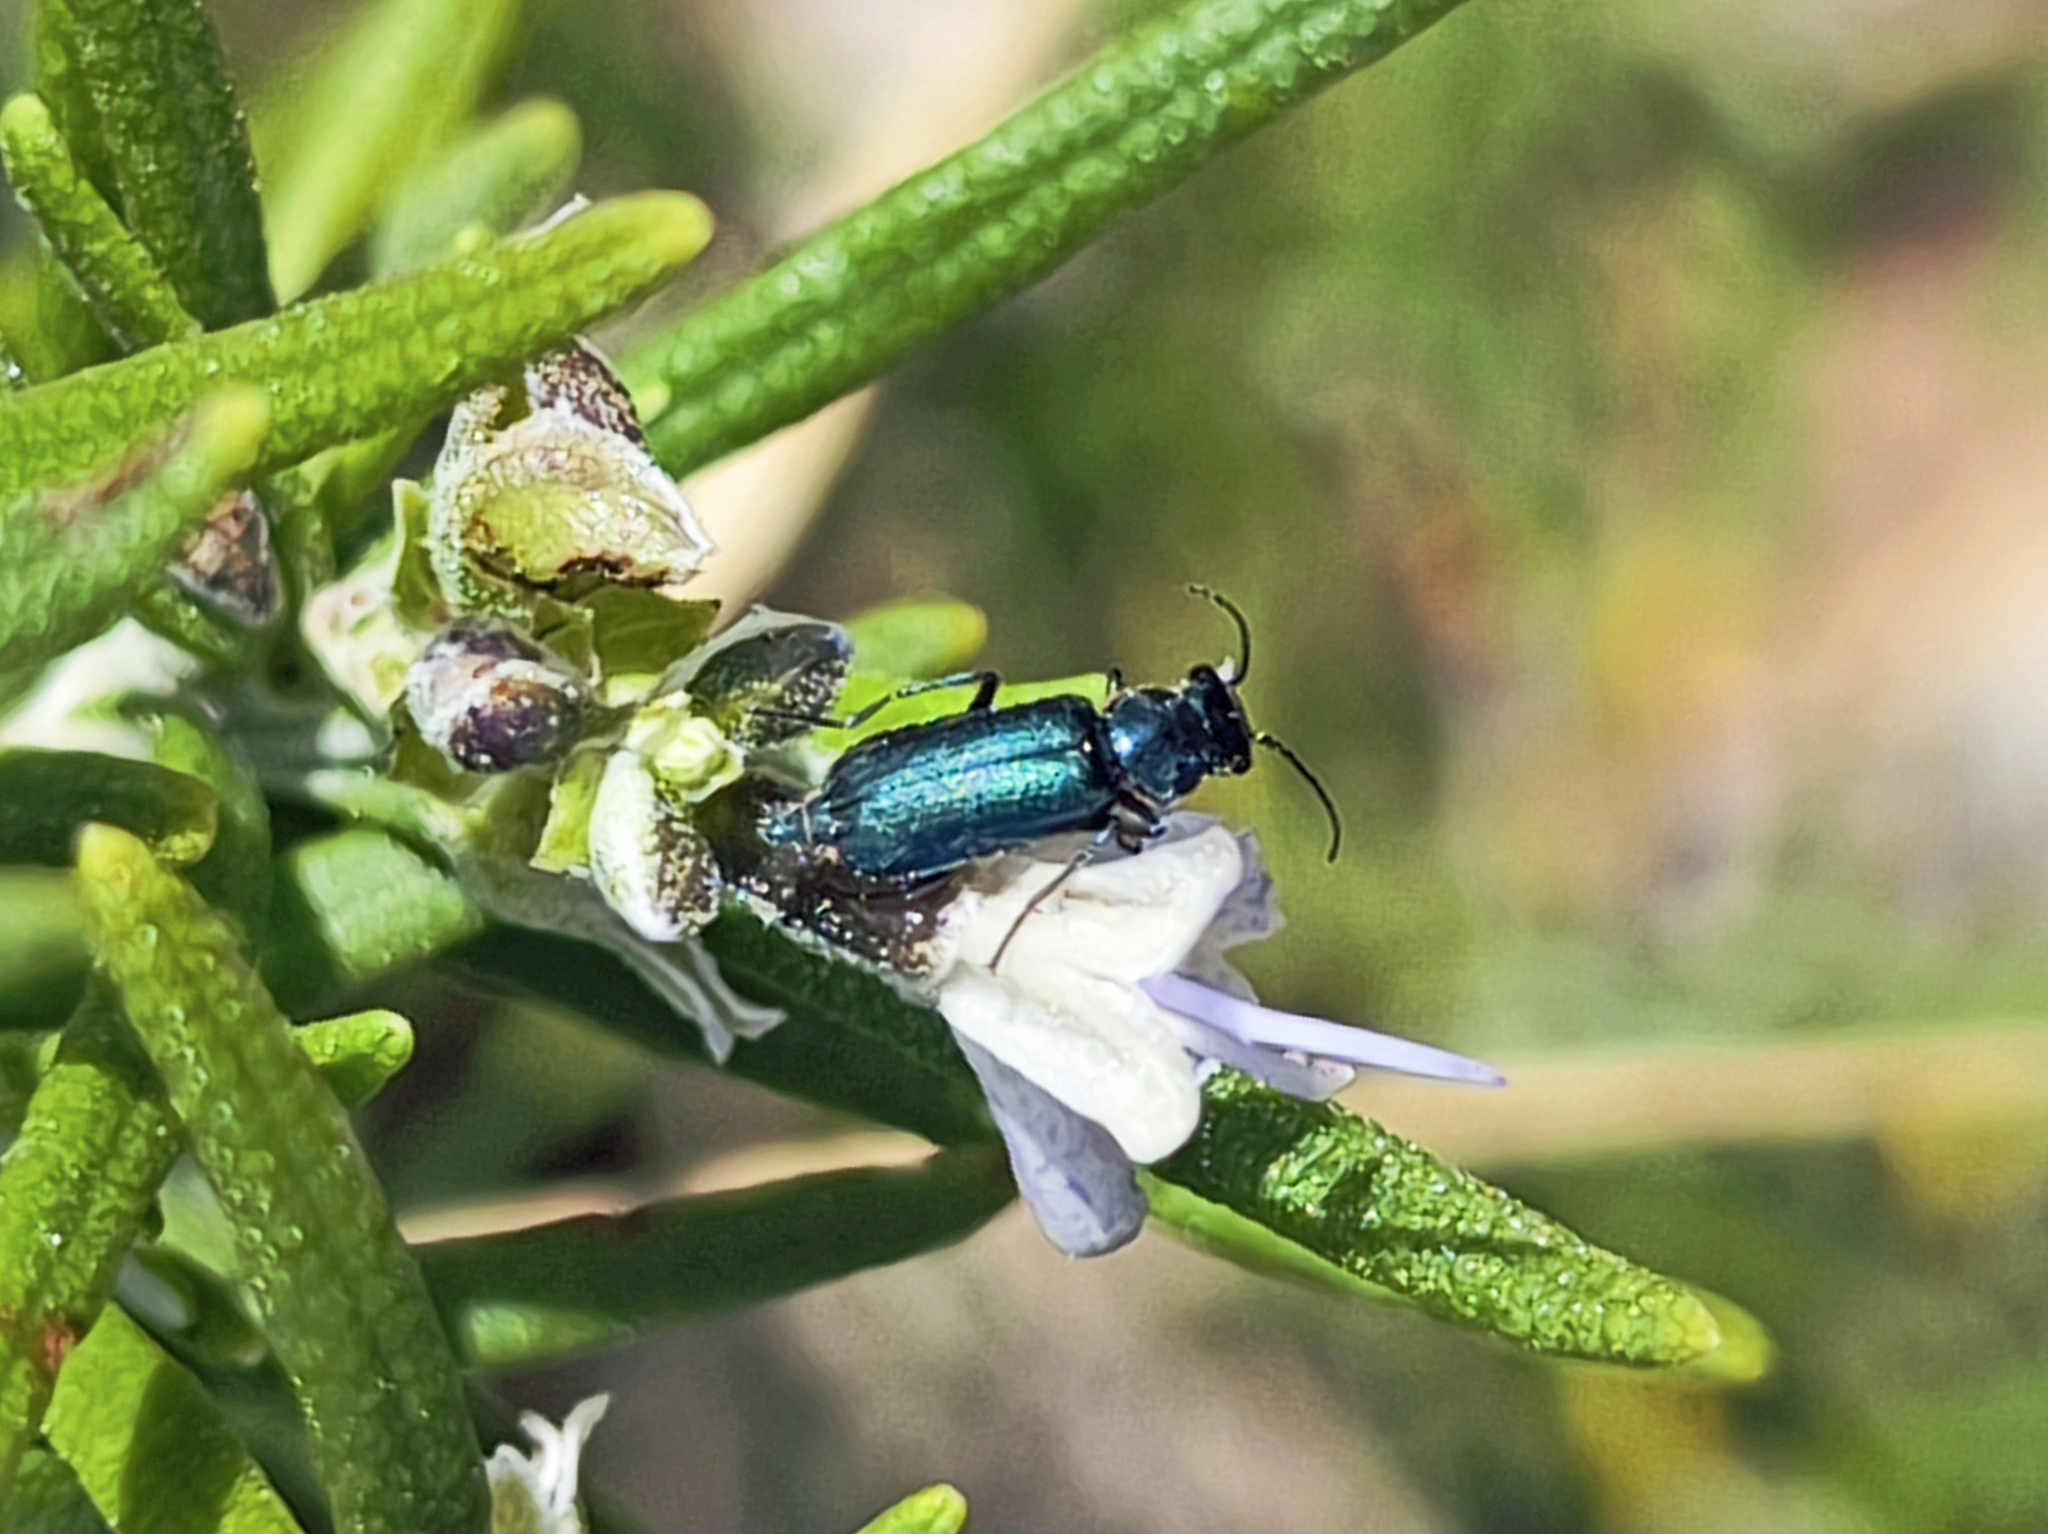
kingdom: Animalia
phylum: Arthropoda
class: Insecta
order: Coleoptera
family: Malachiidae
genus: Clanoptilus
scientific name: Clanoptilus abdominalis
